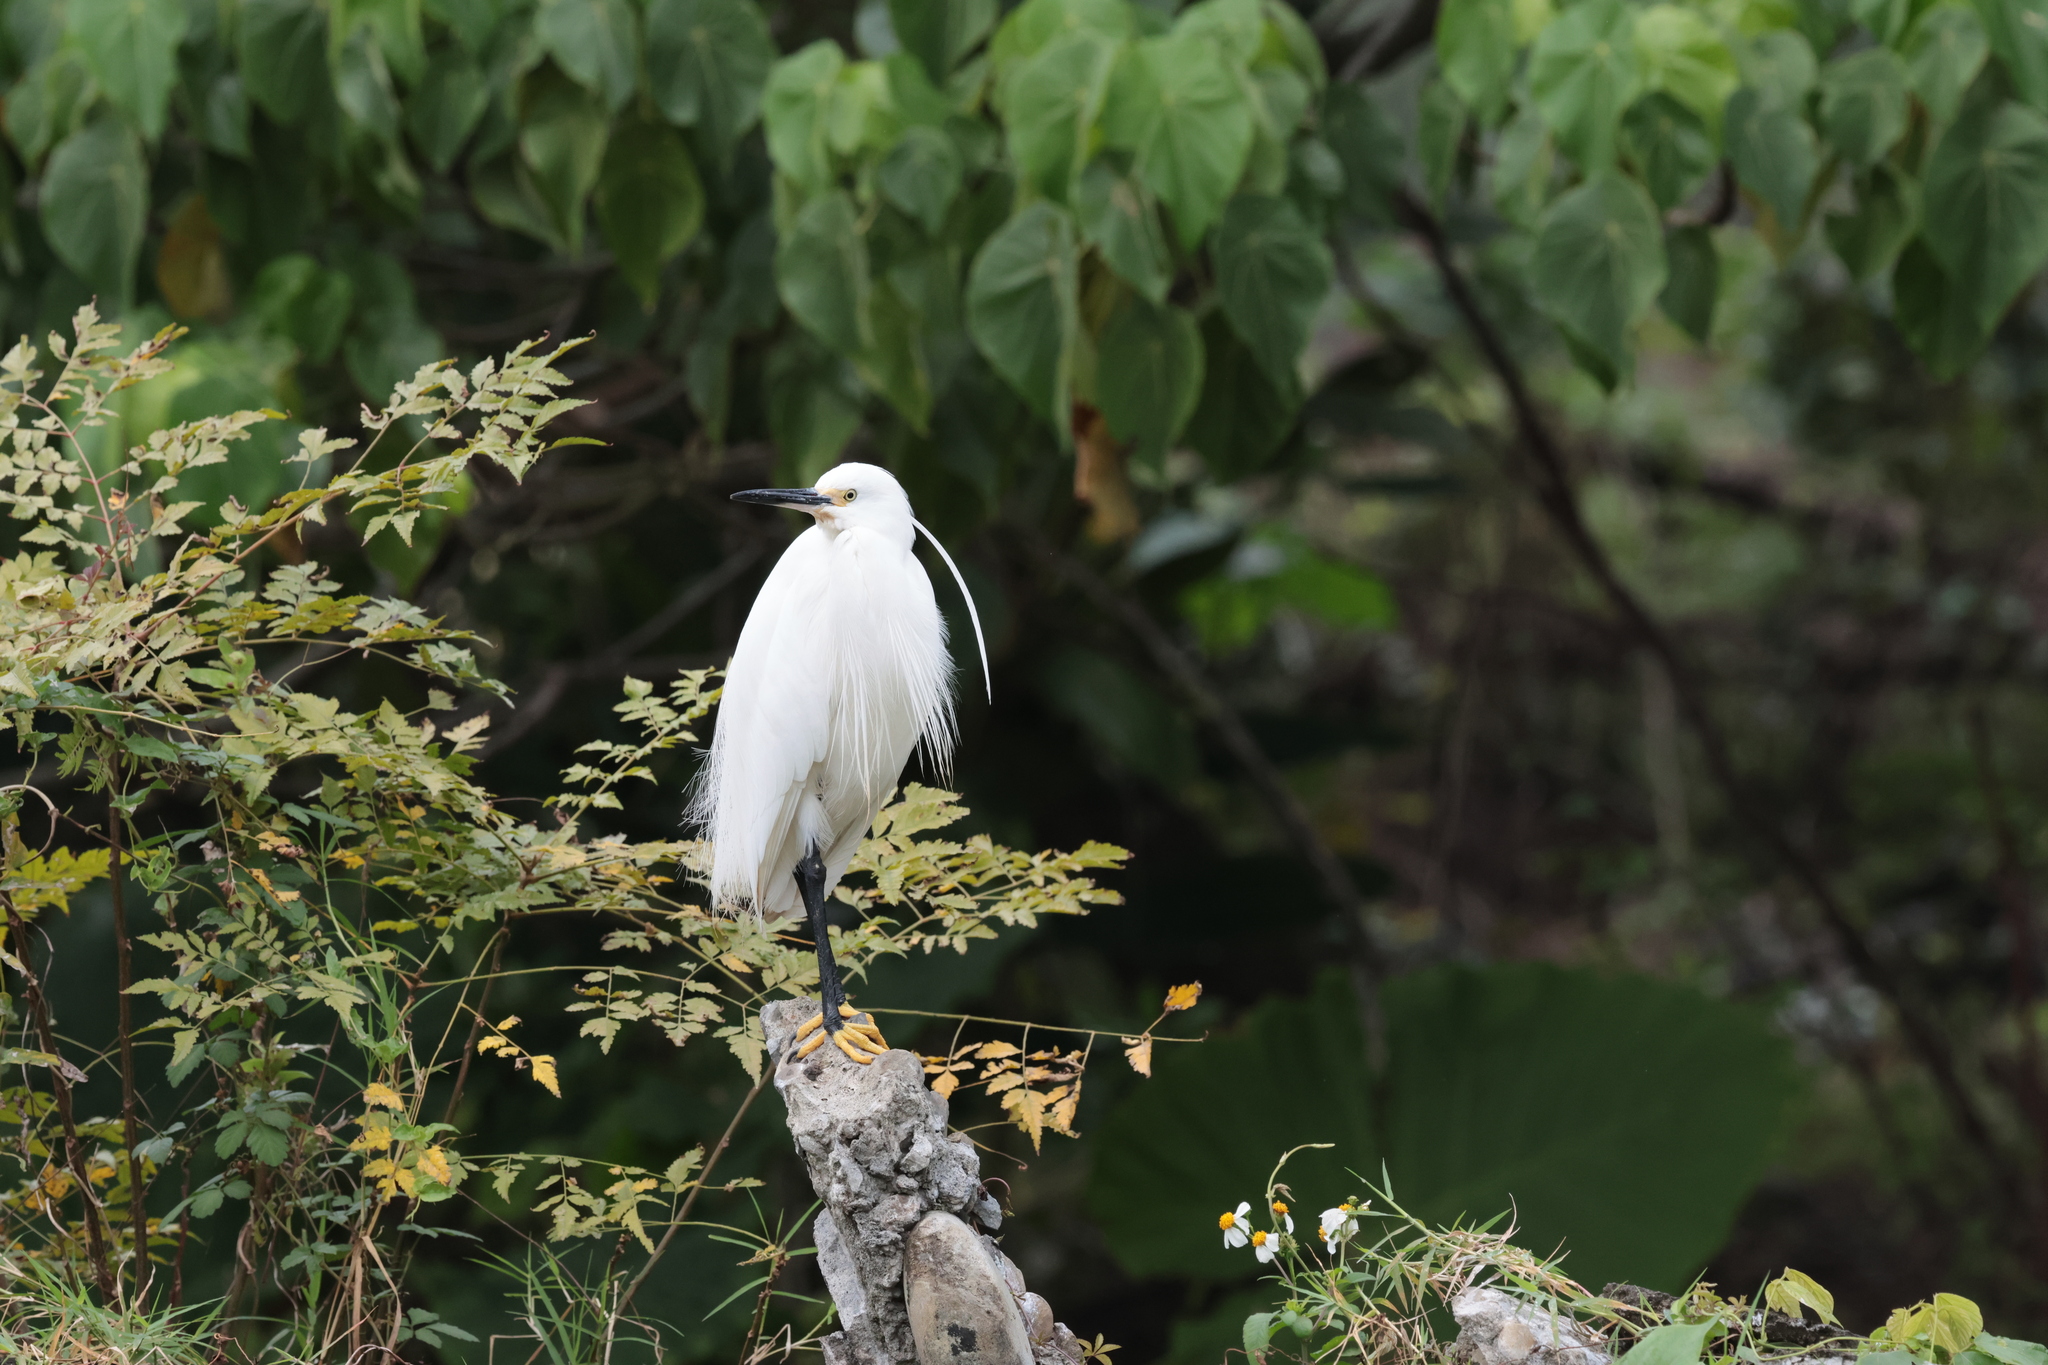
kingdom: Animalia
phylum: Chordata
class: Aves
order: Pelecaniformes
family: Ardeidae
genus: Egretta
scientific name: Egretta garzetta
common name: Little egret
